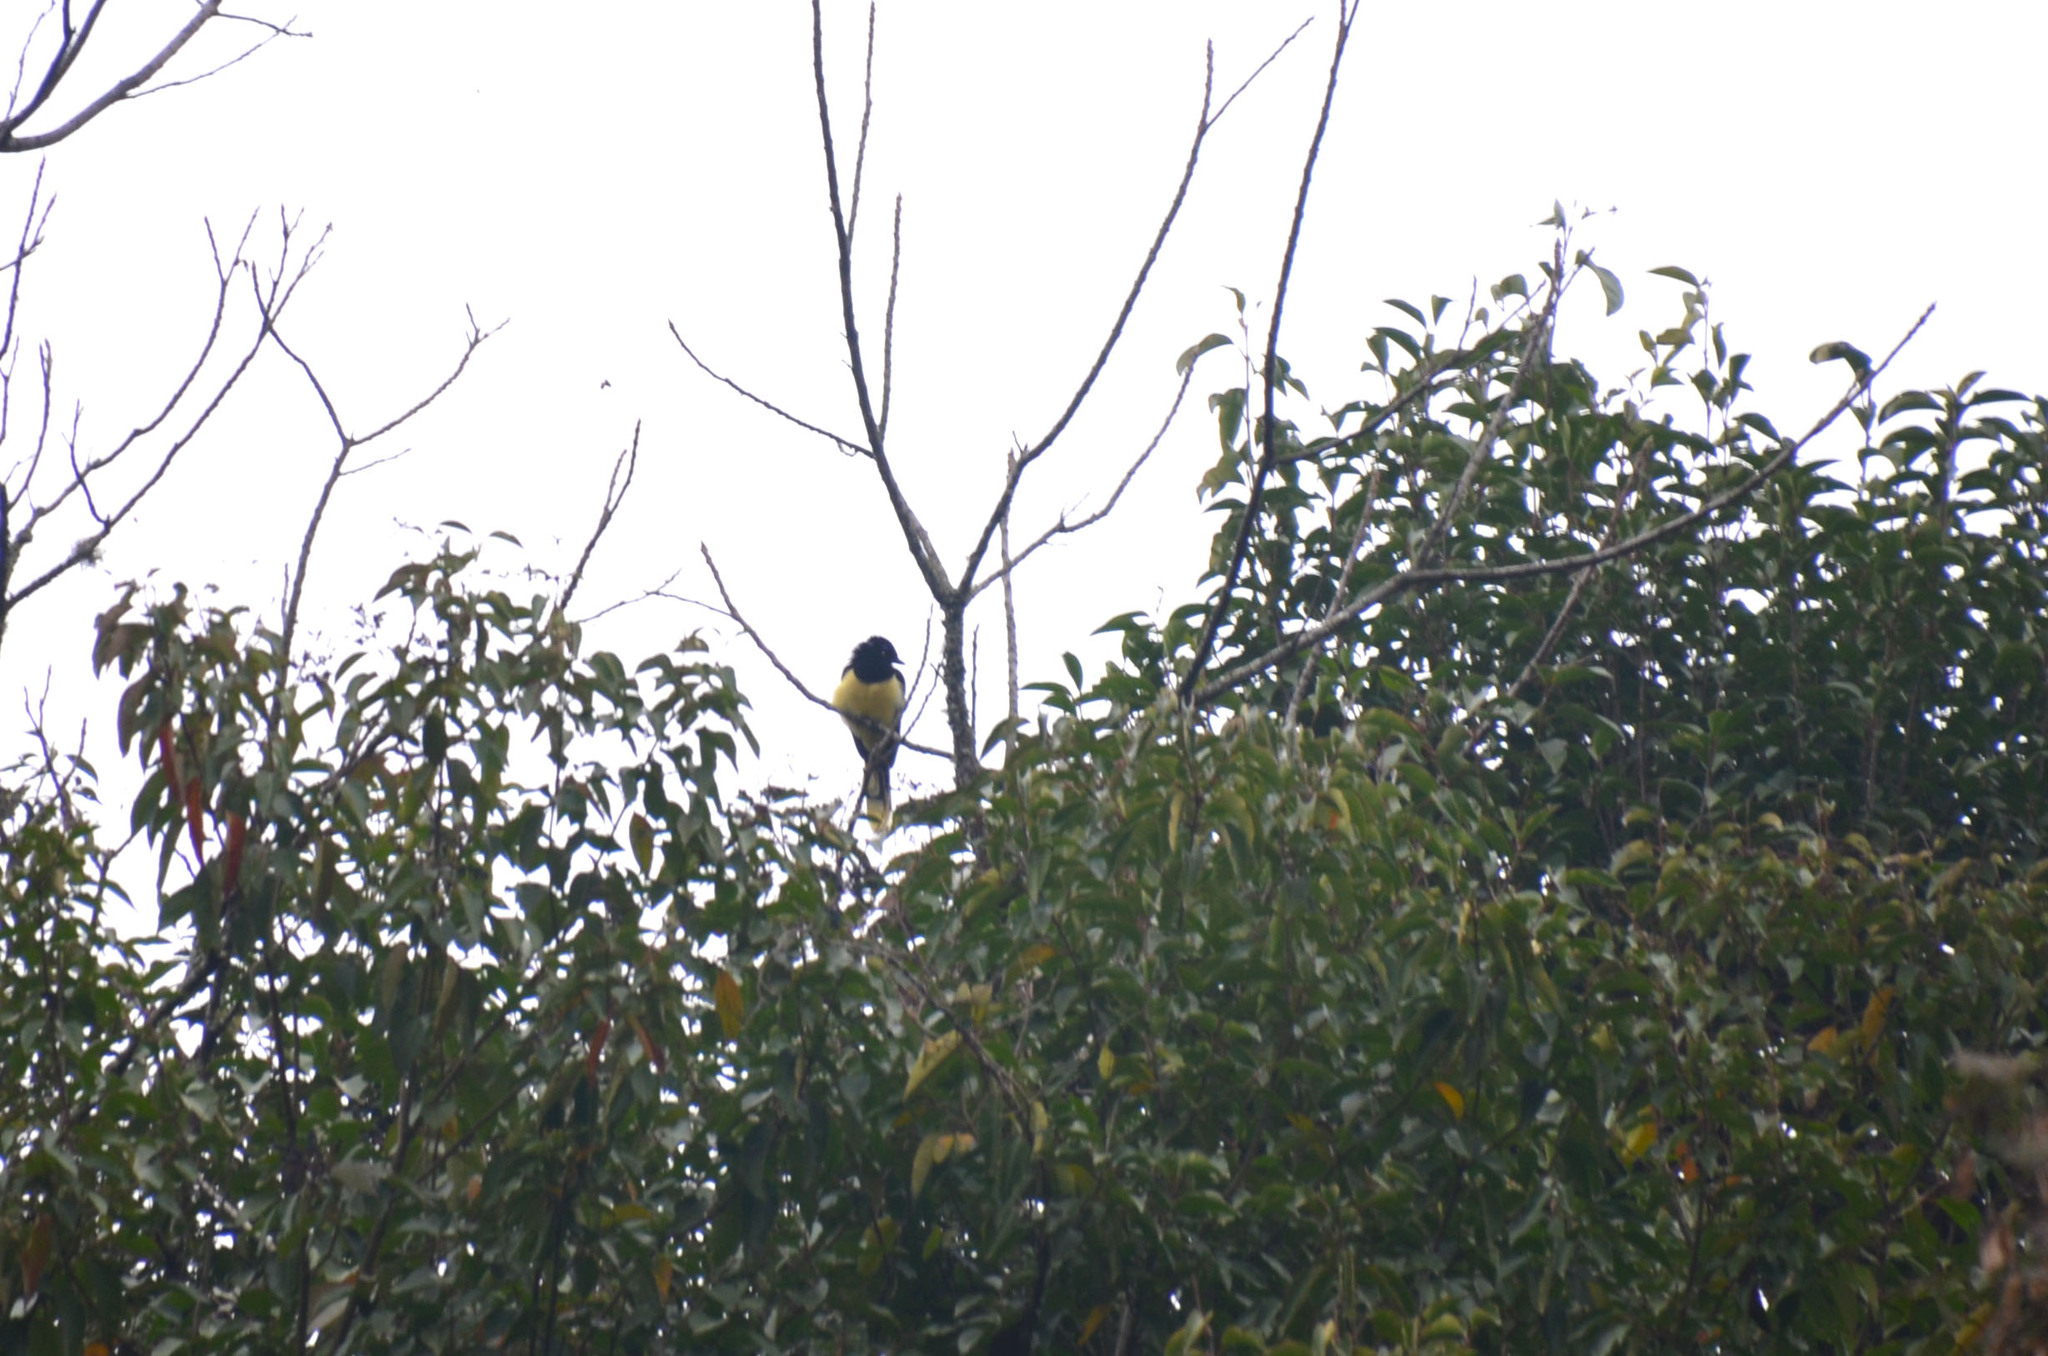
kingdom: Animalia
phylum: Chordata
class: Aves
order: Passeriformes
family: Corvidae
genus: Cyanocorax
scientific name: Cyanocorax chrysops
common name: Plush-crested jay
